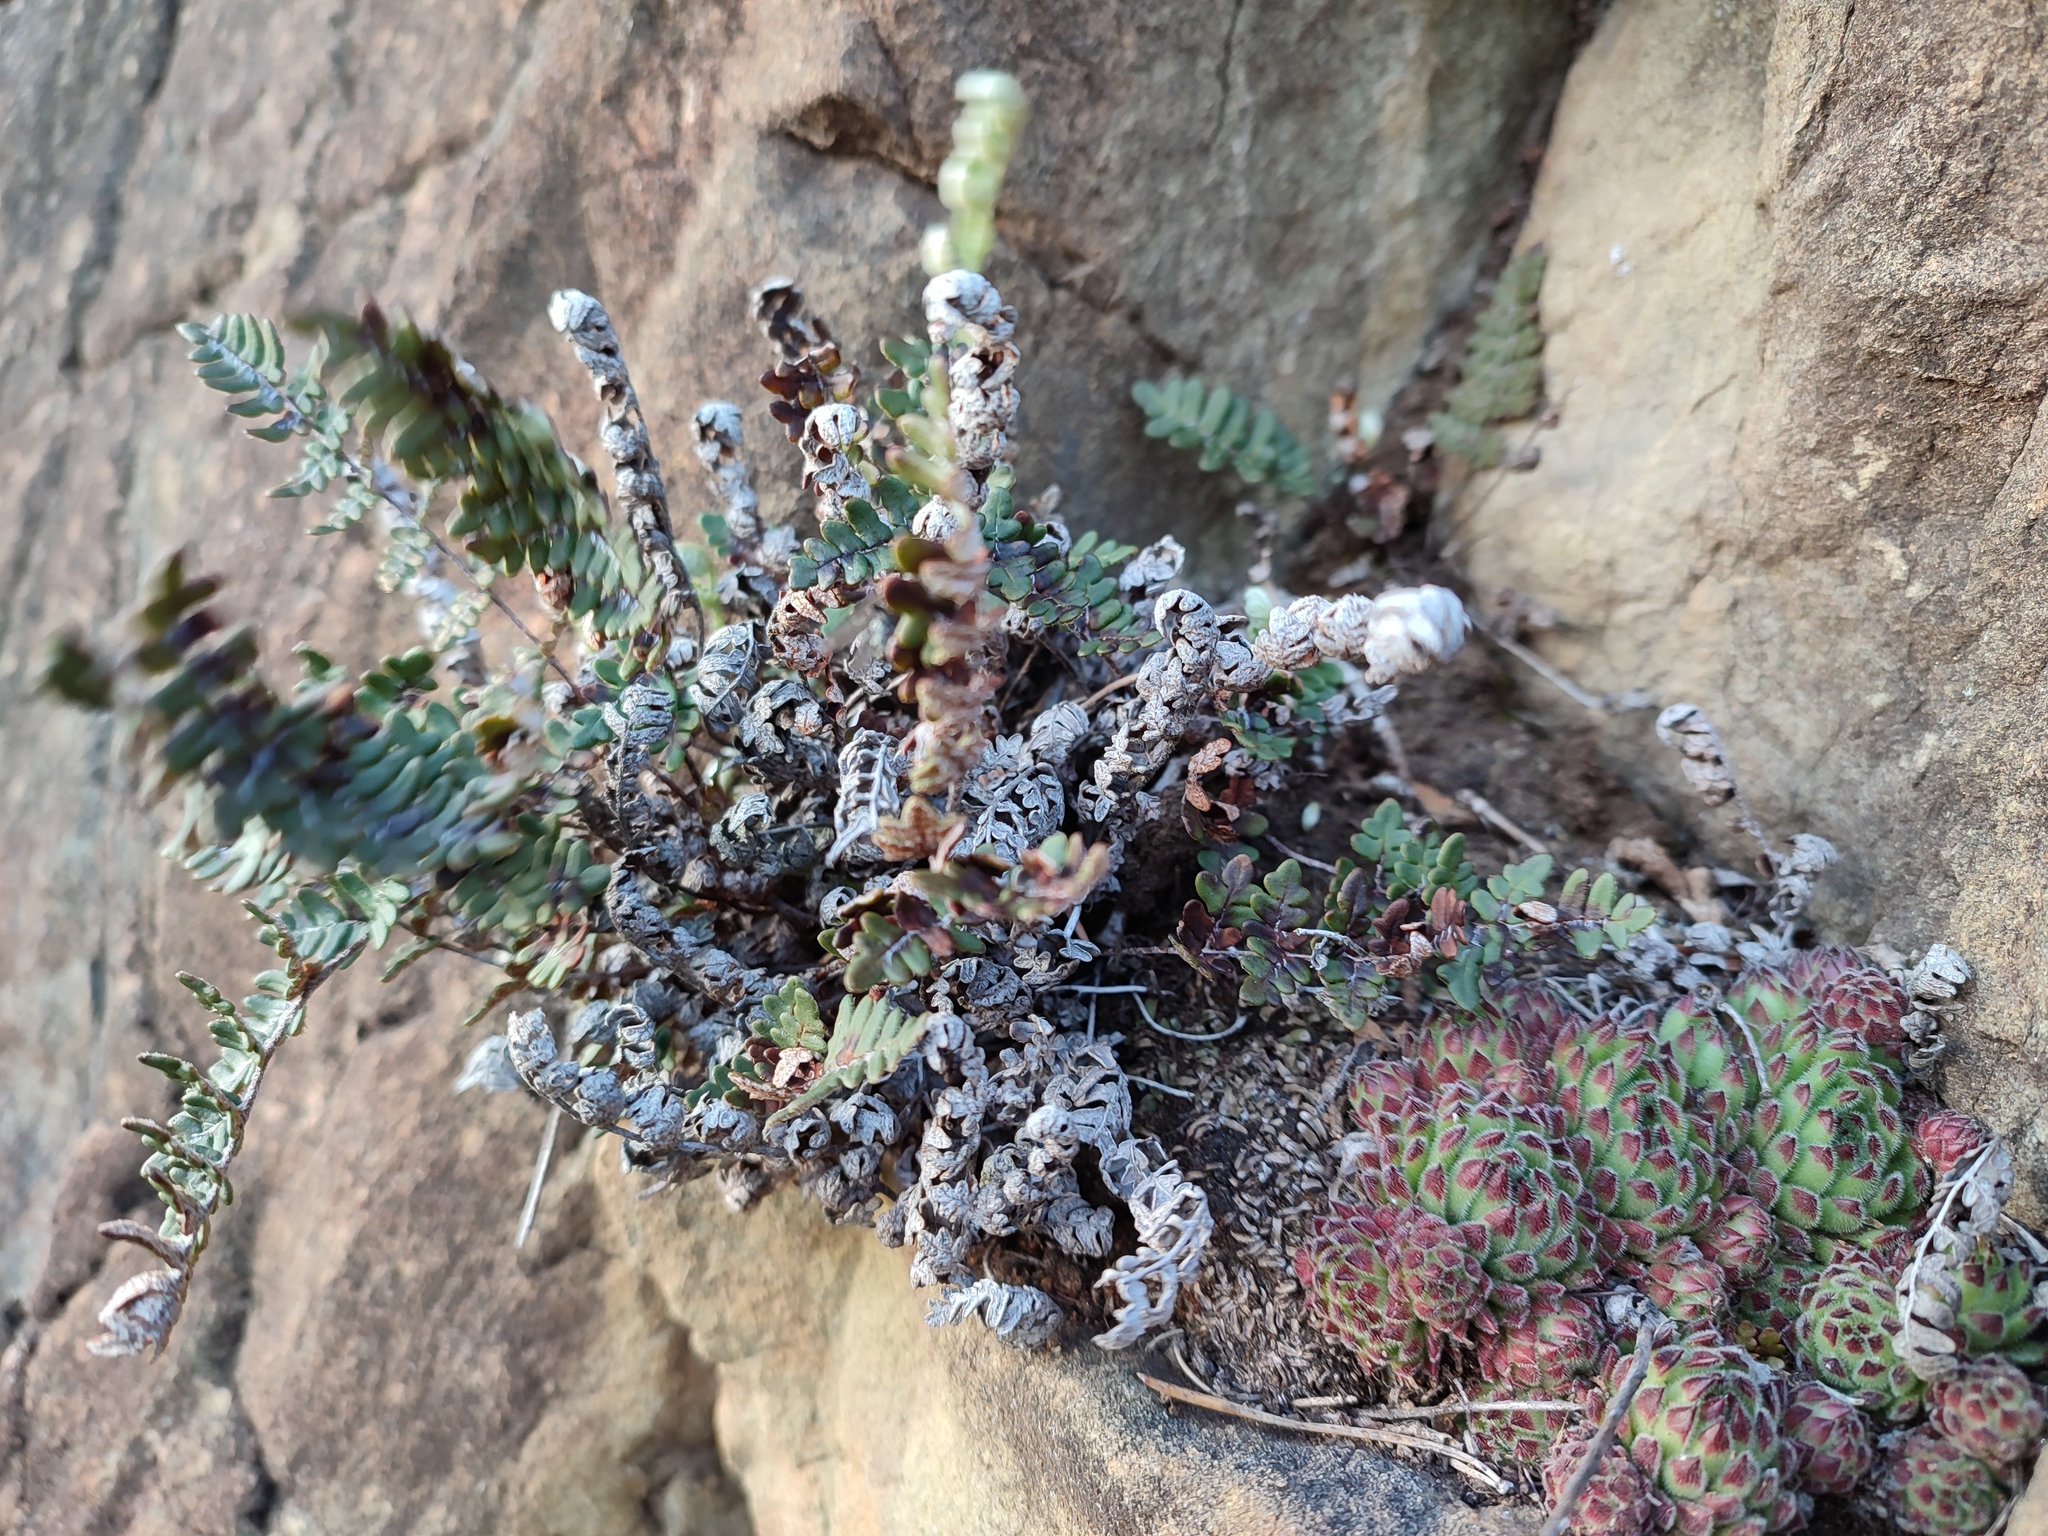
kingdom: Plantae
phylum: Tracheophyta
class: Magnoliopsida
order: Saxifragales
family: Crassulaceae
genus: Sempervivum
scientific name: Sempervivum pittonii
